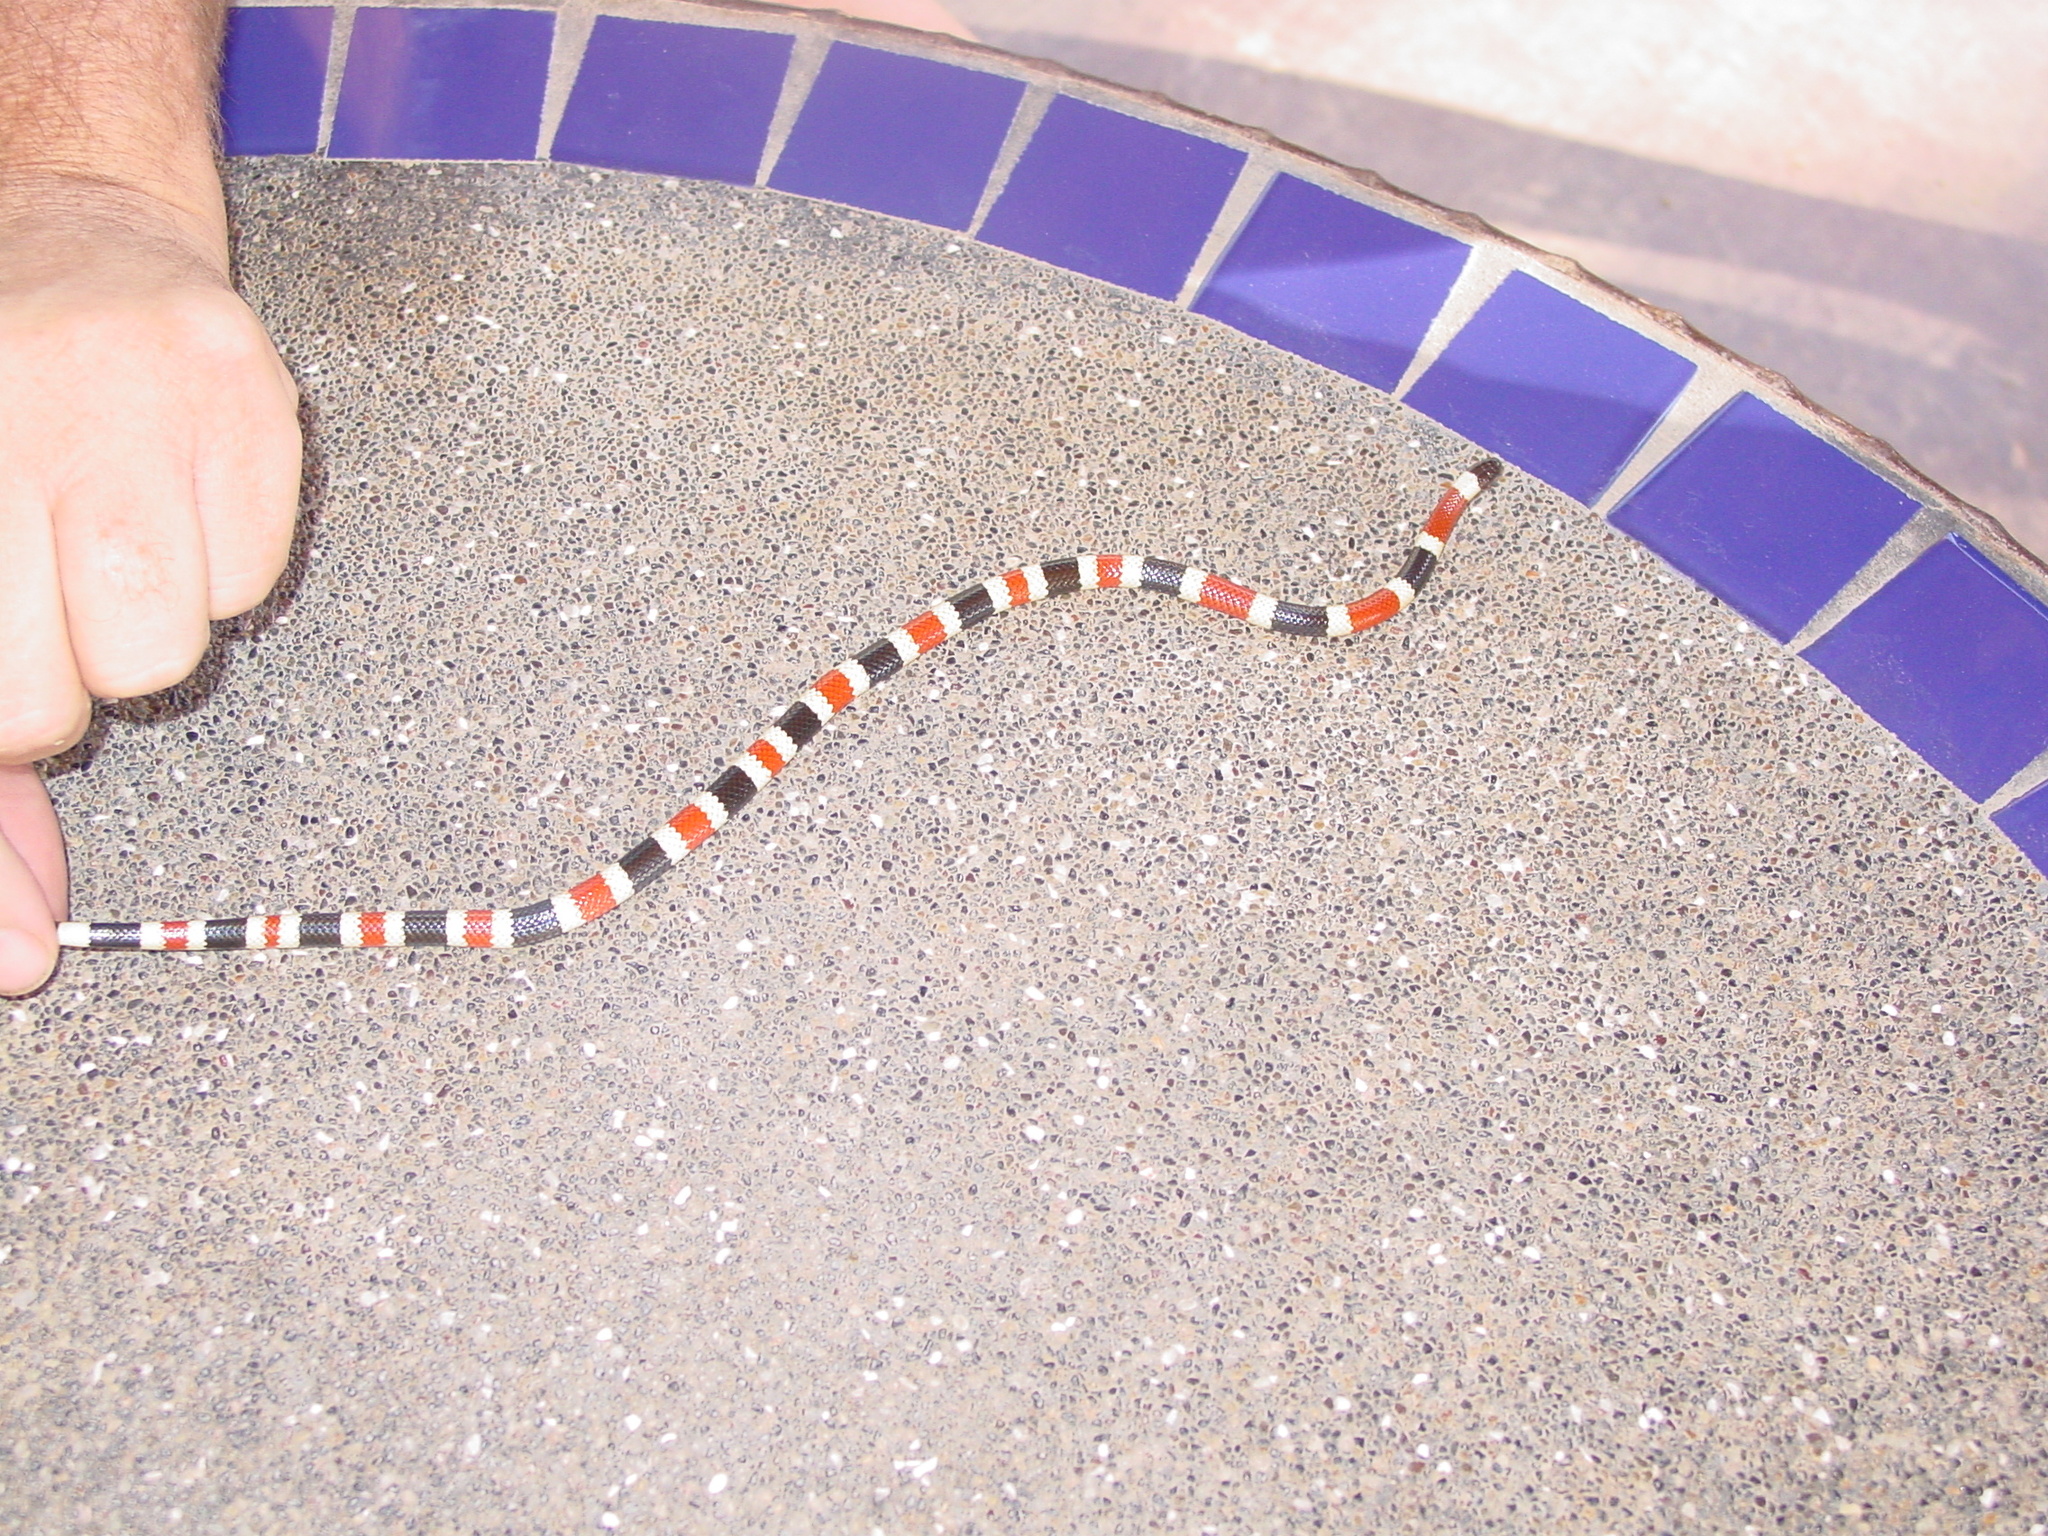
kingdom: Animalia
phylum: Chordata
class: Squamata
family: Elapidae
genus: Micruroides
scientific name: Micruroides euryxanthus
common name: Western coral snake
